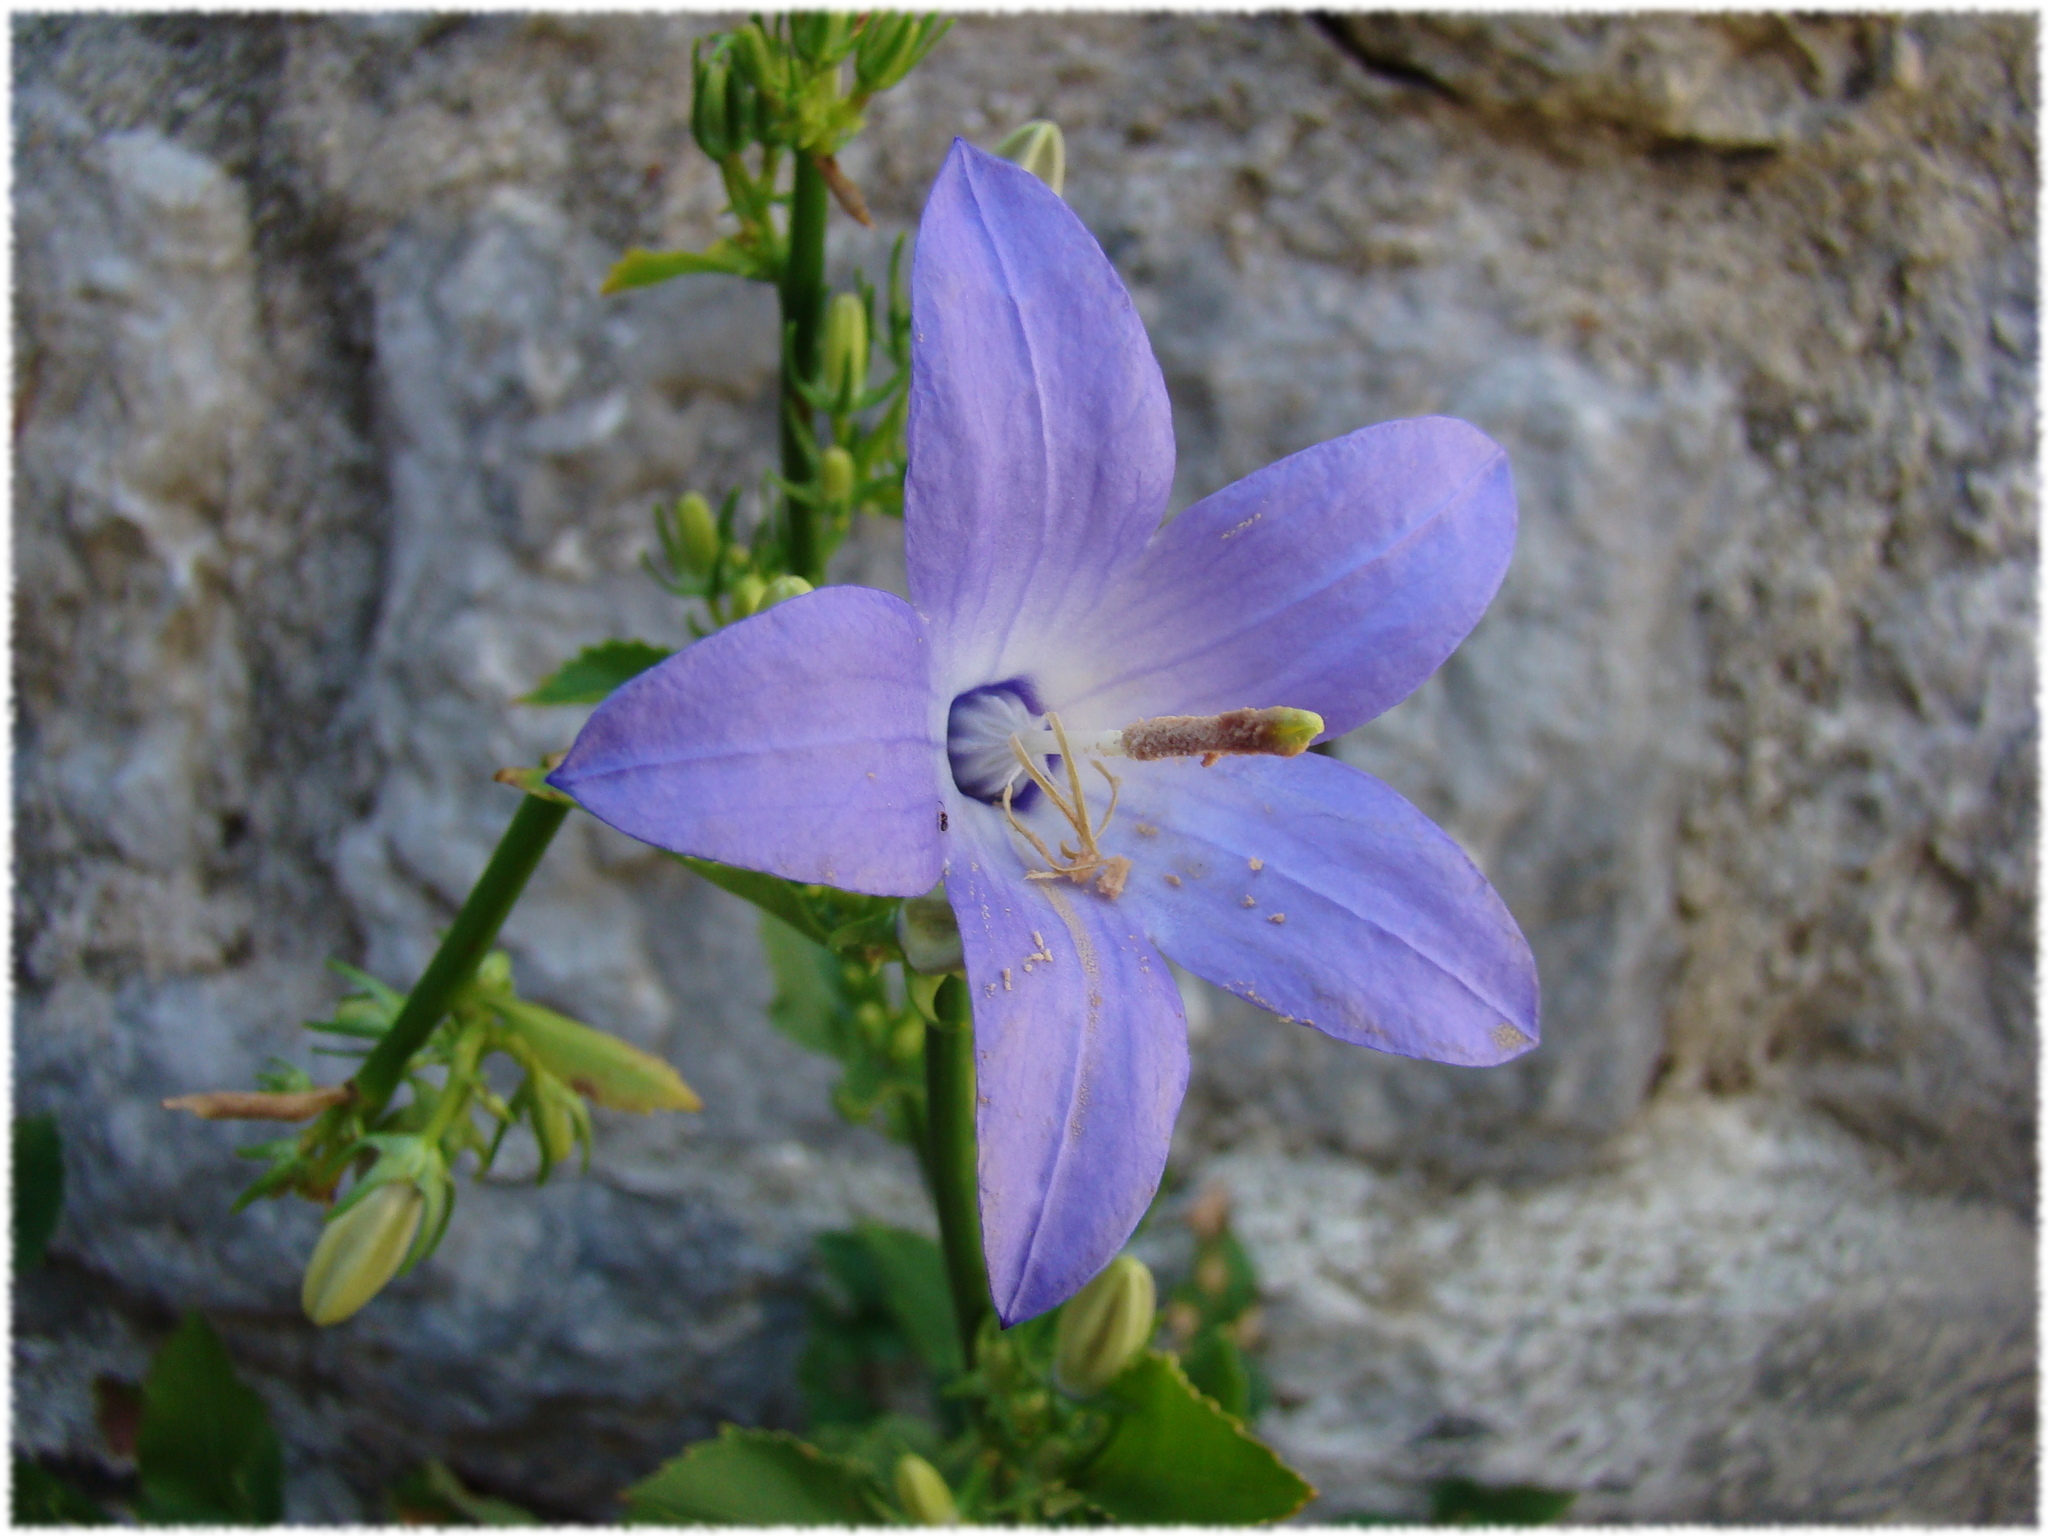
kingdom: Plantae
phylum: Tracheophyta
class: Magnoliopsida
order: Asterales
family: Campanulaceae
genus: Campanula
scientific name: Campanula austroadriatica
